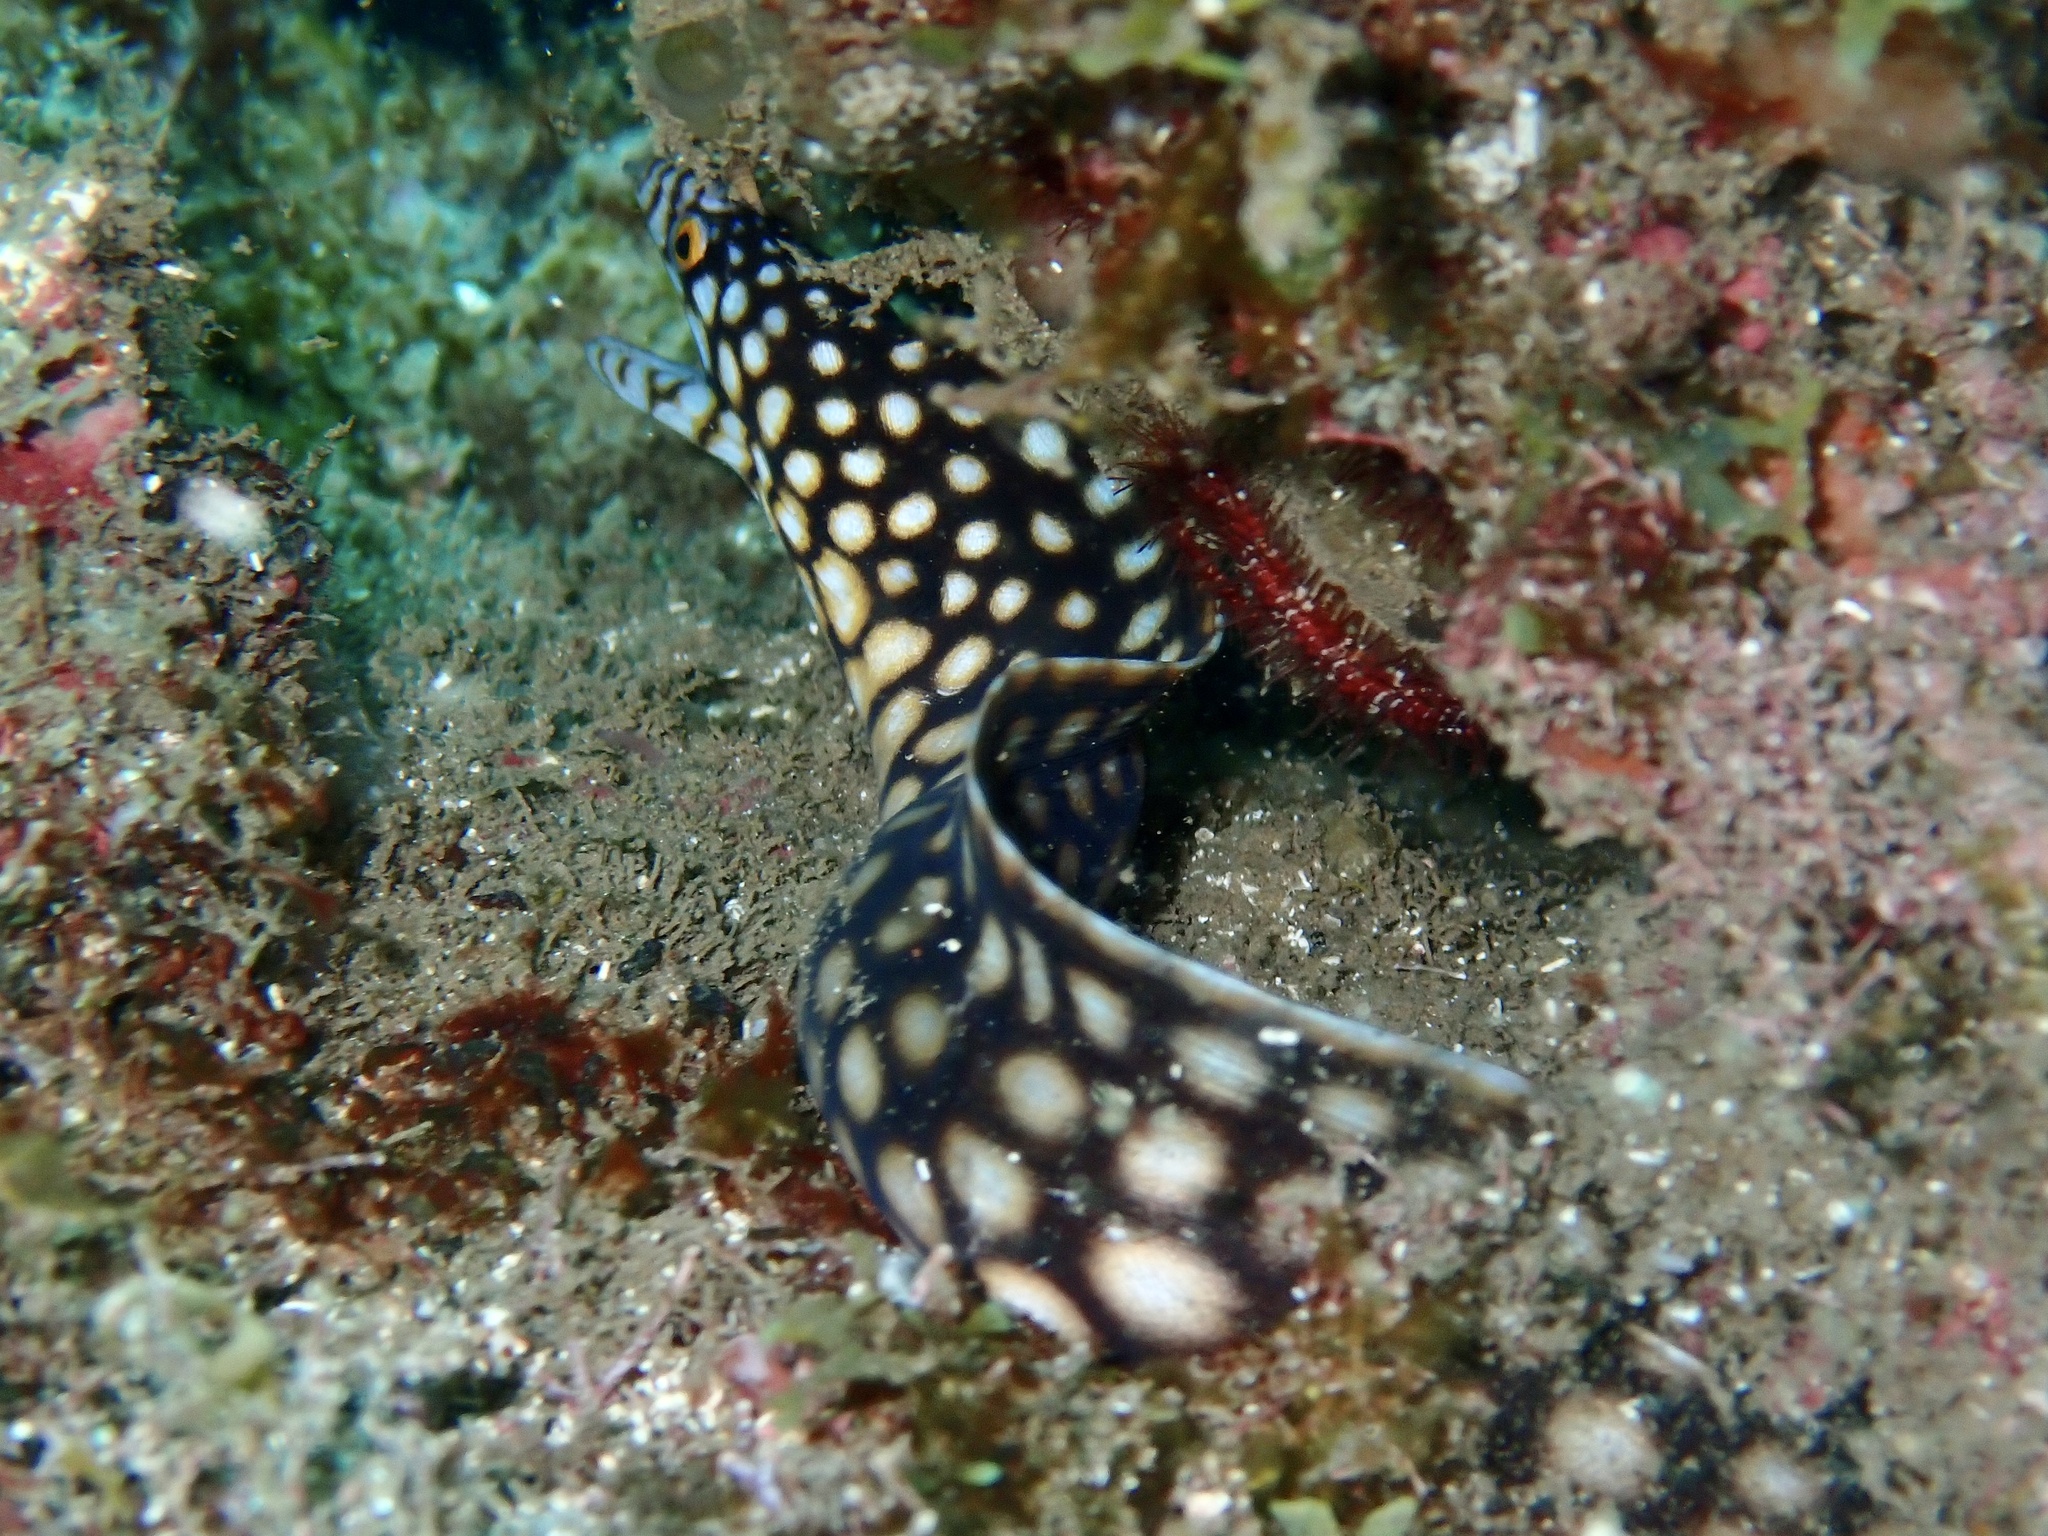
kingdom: Animalia
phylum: Chordata
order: Anguilliformes
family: Muraenidae
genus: Muraena
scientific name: Muraena melanotis
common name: Honeycomb moray
